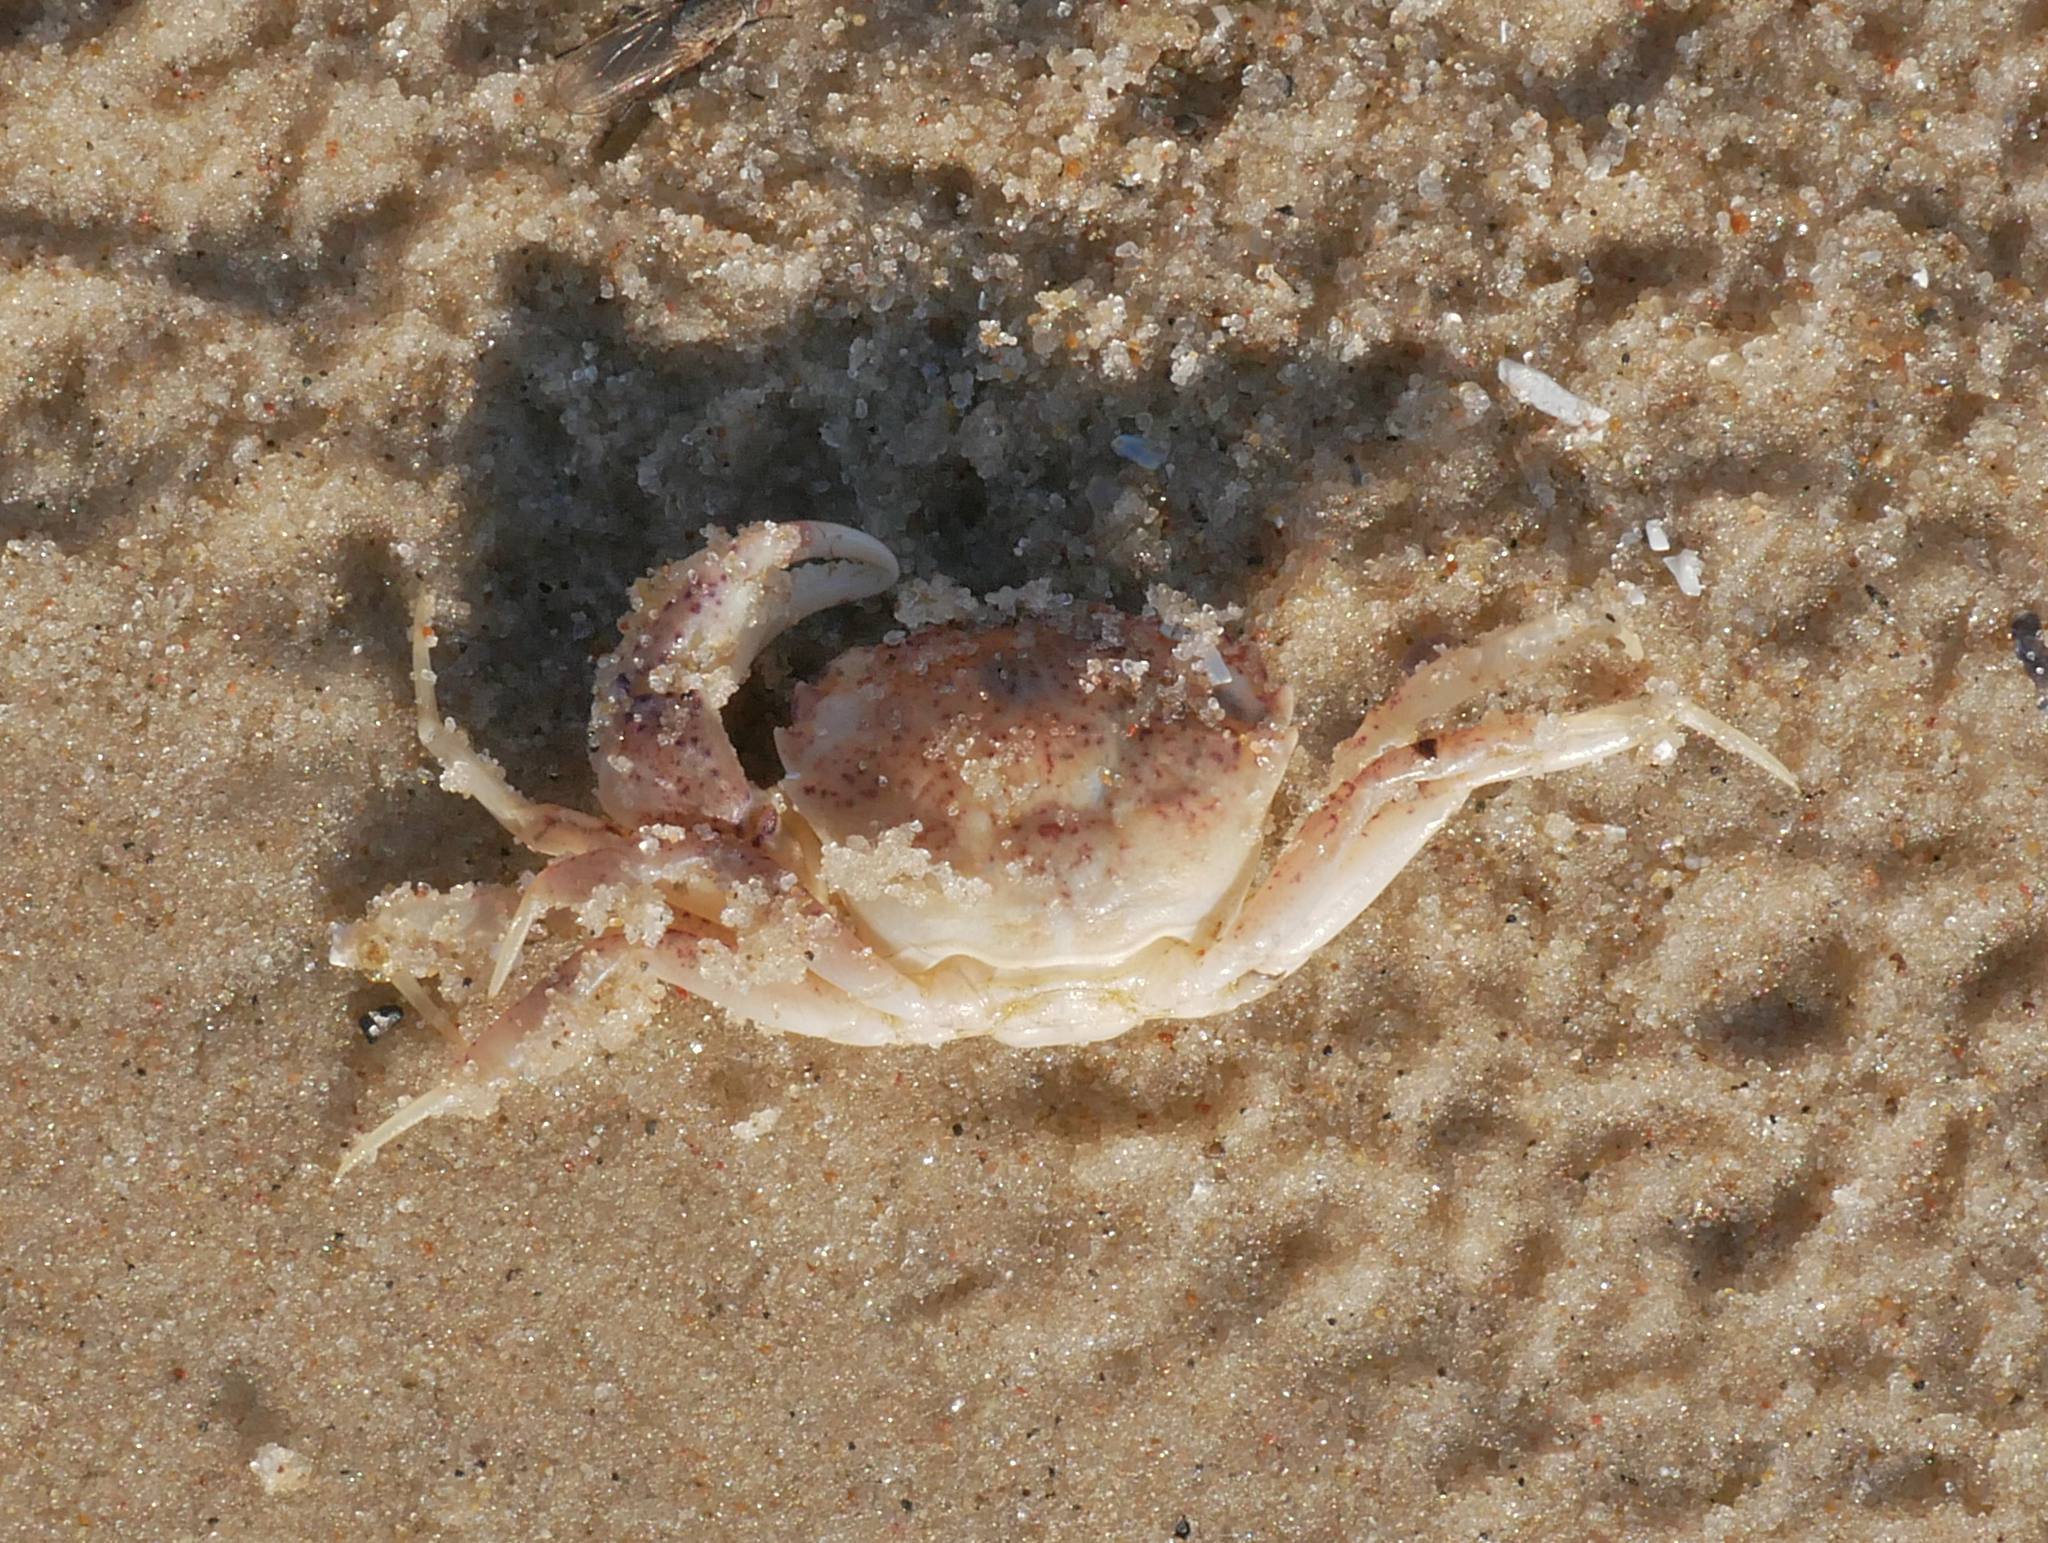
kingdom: Animalia
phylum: Arthropoda
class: Malacostraca
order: Decapoda
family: Panopeidae
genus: Rhithropanopeus
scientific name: Rhithropanopeus harrisii
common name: Dwarf crab
